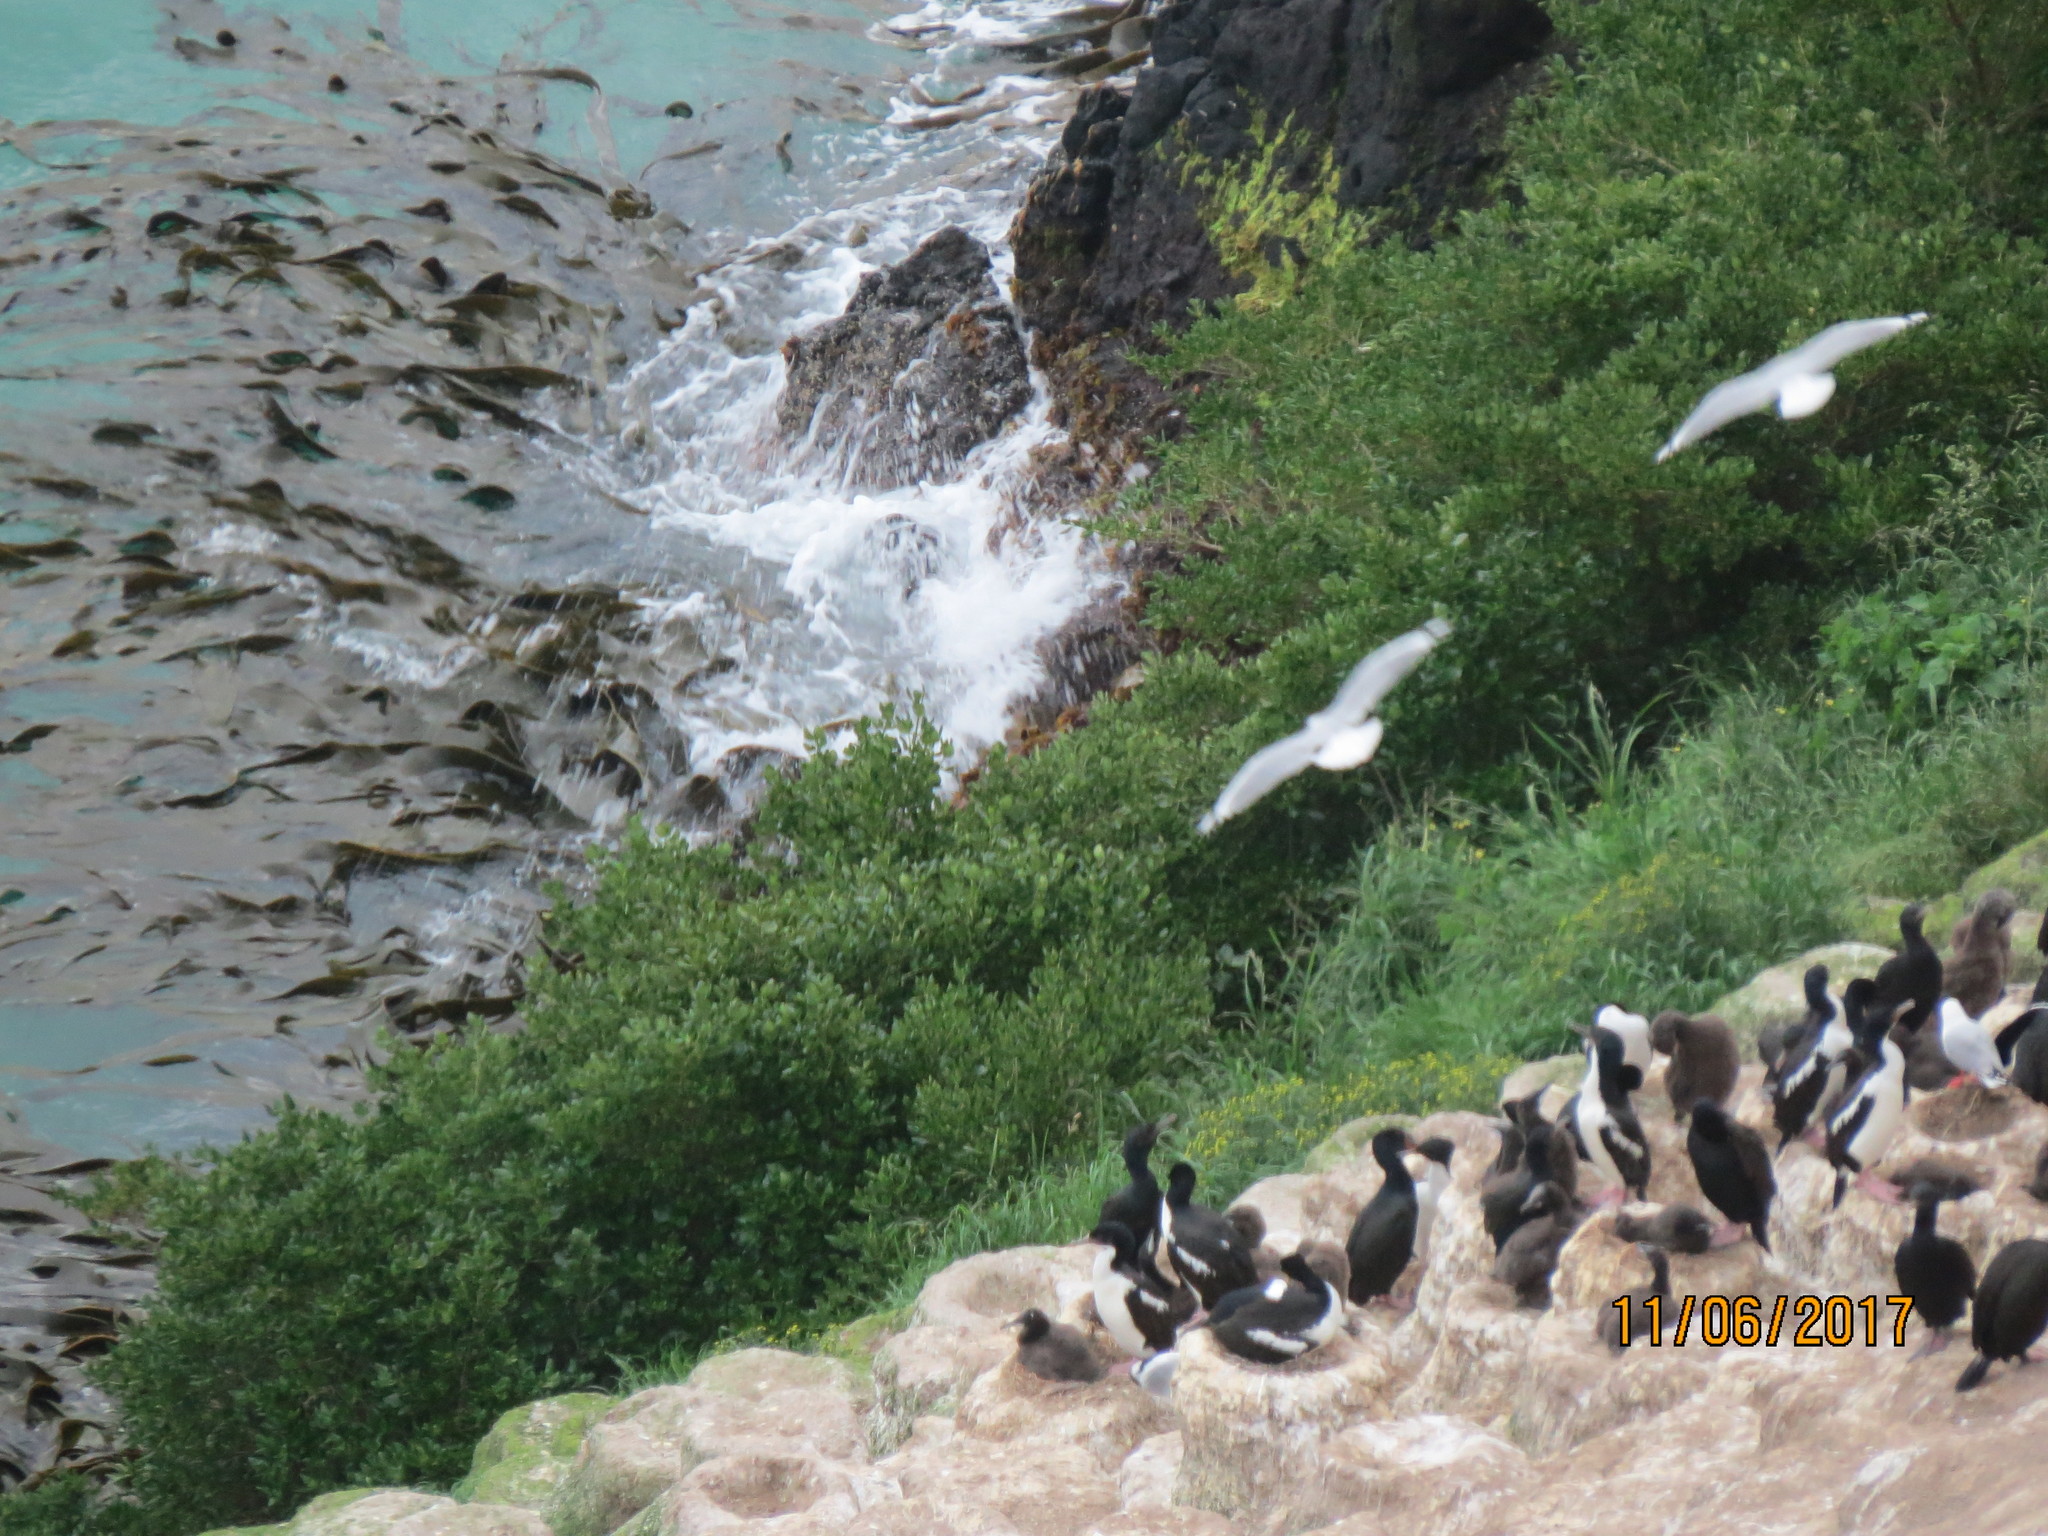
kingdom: Animalia
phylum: Chordata
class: Aves
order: Suliformes
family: Phalacrocoracidae
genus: Leucocarbo
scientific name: Leucocarbo chalconotus
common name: Stewart shag
